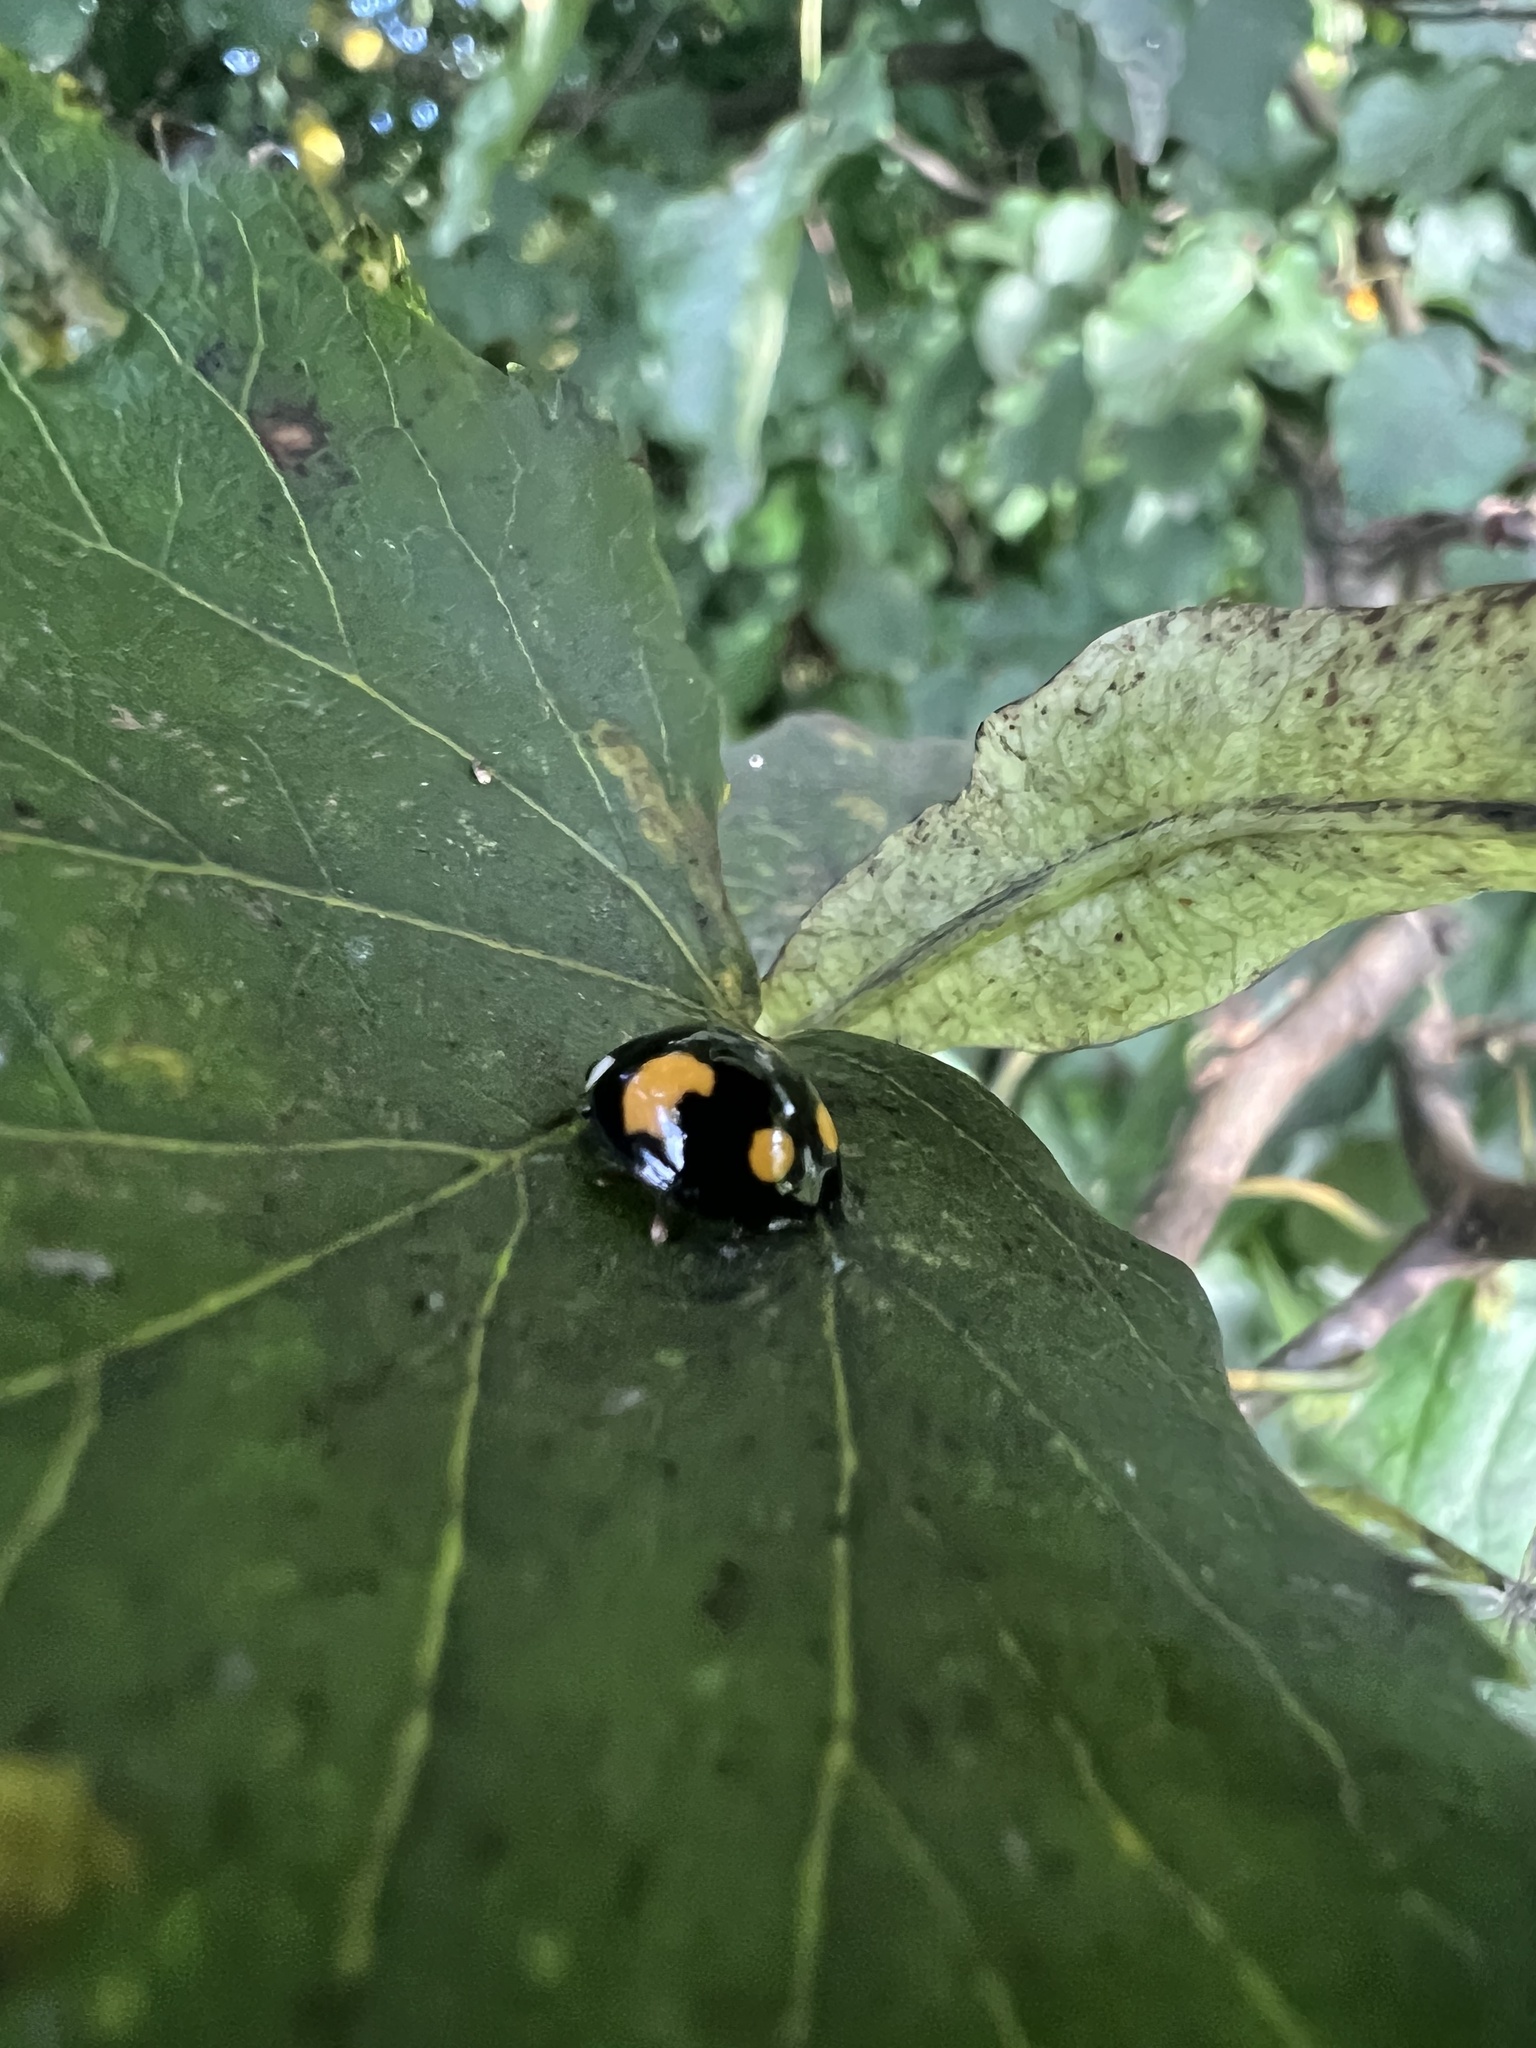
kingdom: Animalia
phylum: Arthropoda
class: Insecta
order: Coleoptera
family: Coccinellidae
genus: Harmonia
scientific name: Harmonia axyridis
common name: Harlequin ladybird
